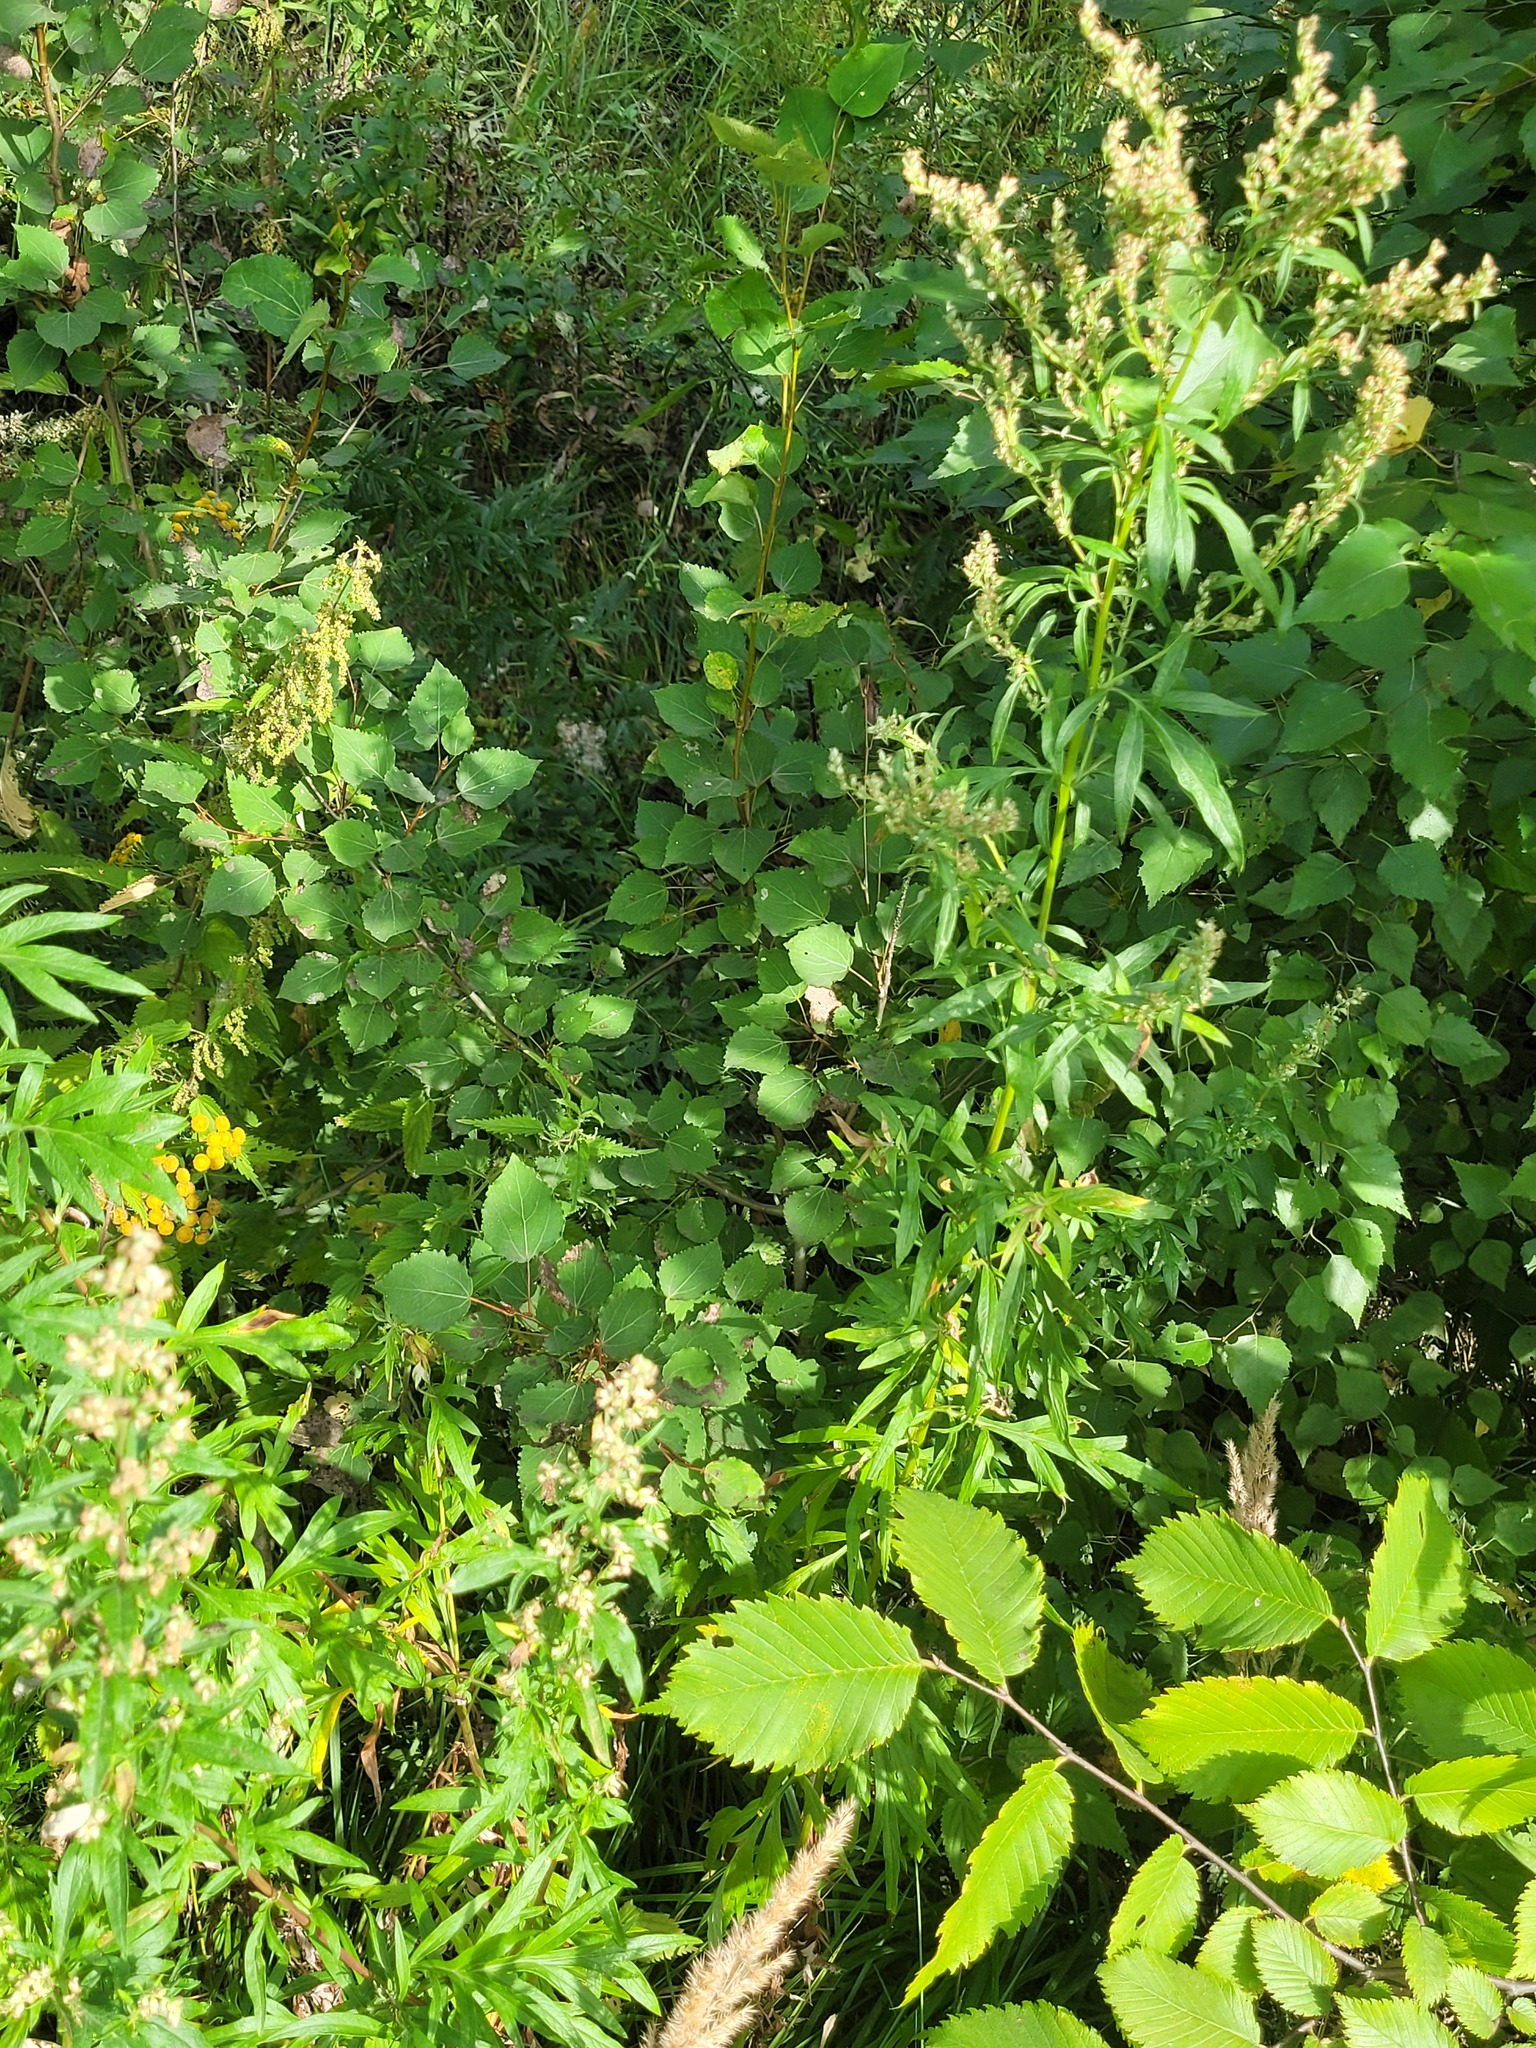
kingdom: Plantae
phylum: Tracheophyta
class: Magnoliopsida
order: Malpighiales
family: Salicaceae
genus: Populus
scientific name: Populus tremula
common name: European aspen
